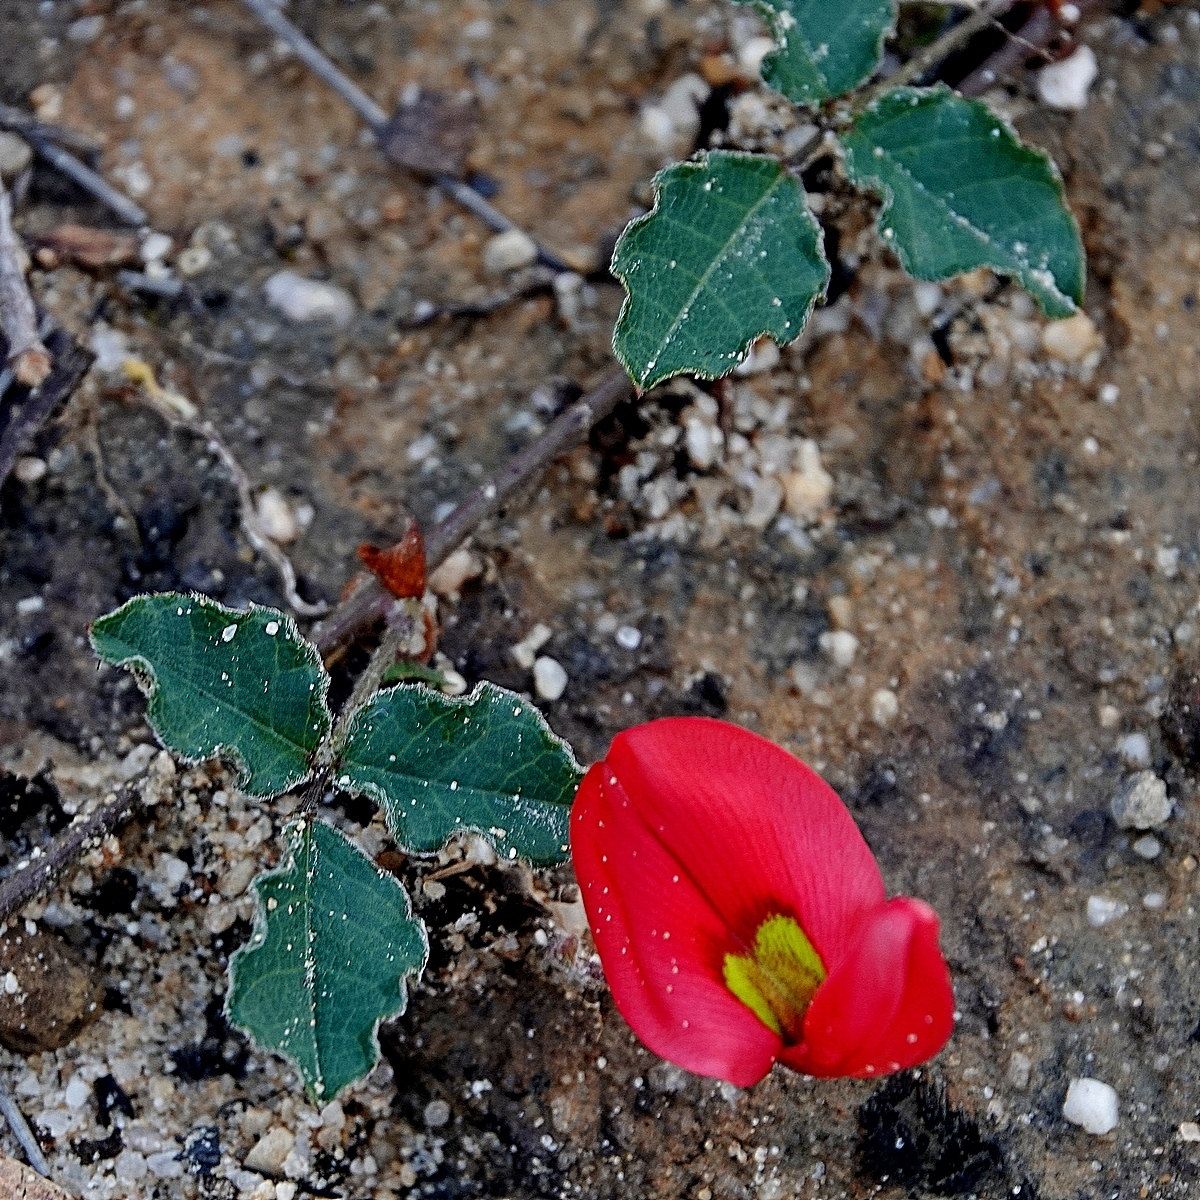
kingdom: Plantae
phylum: Tracheophyta
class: Magnoliopsida
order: Fabales
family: Fabaceae
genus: Kennedia
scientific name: Kennedia prostrata
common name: Running-postman
